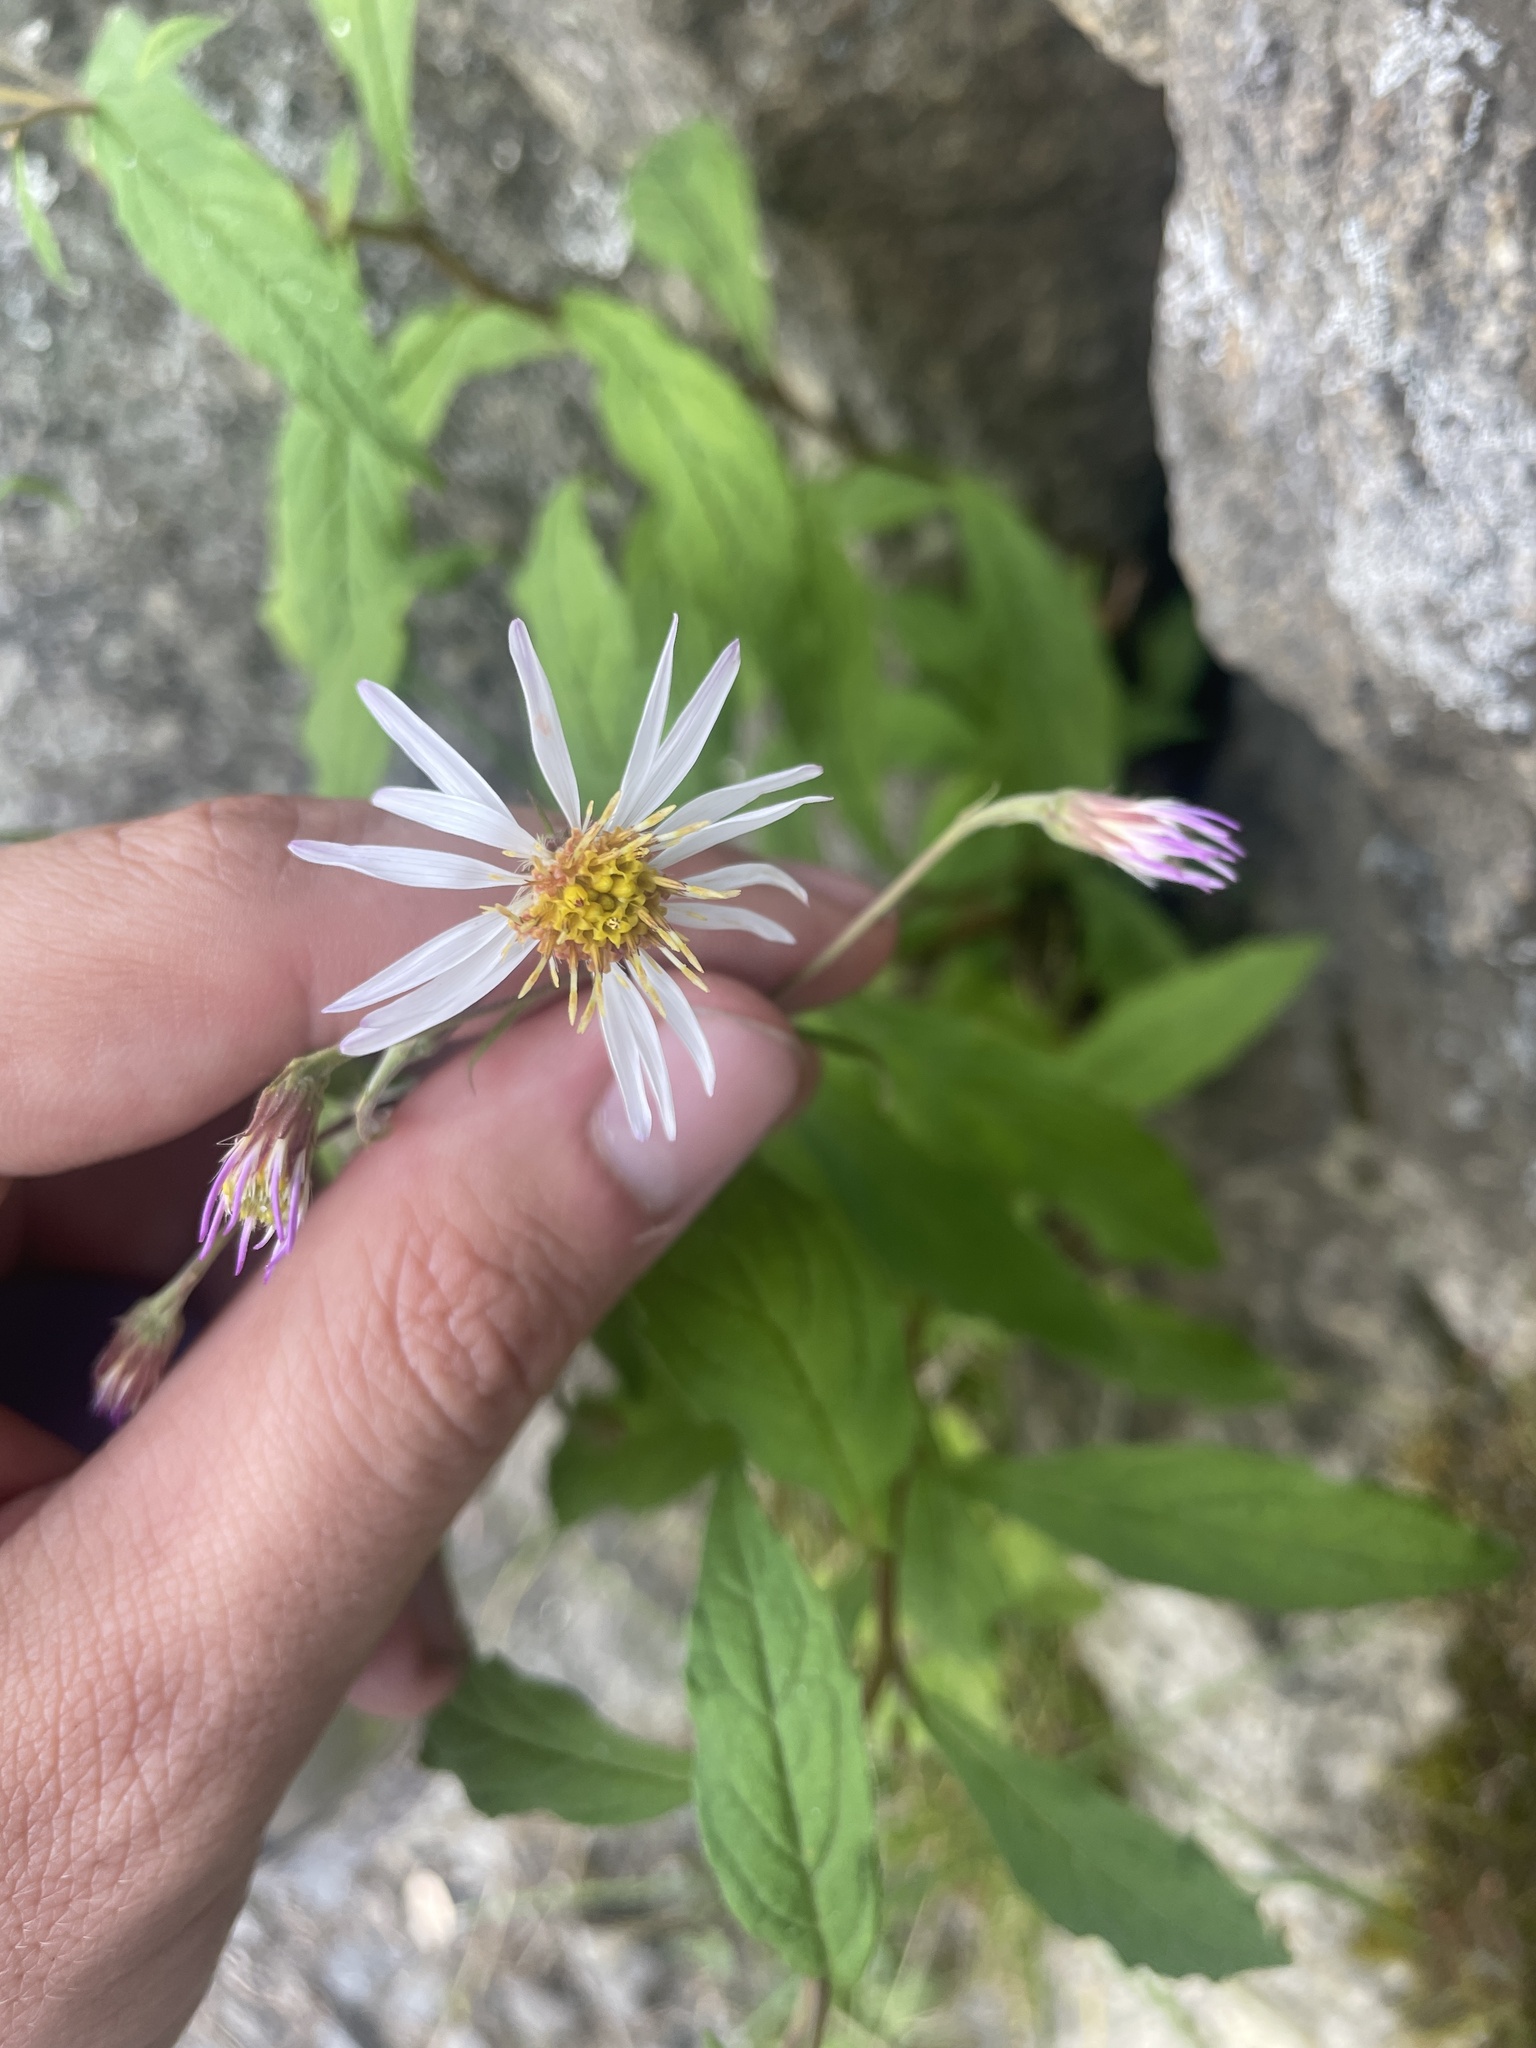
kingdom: Plantae
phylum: Tracheophyta
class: Magnoliopsida
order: Asterales
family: Asteraceae
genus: Oclemena
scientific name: Oclemena acuminata
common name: Mountain aster
